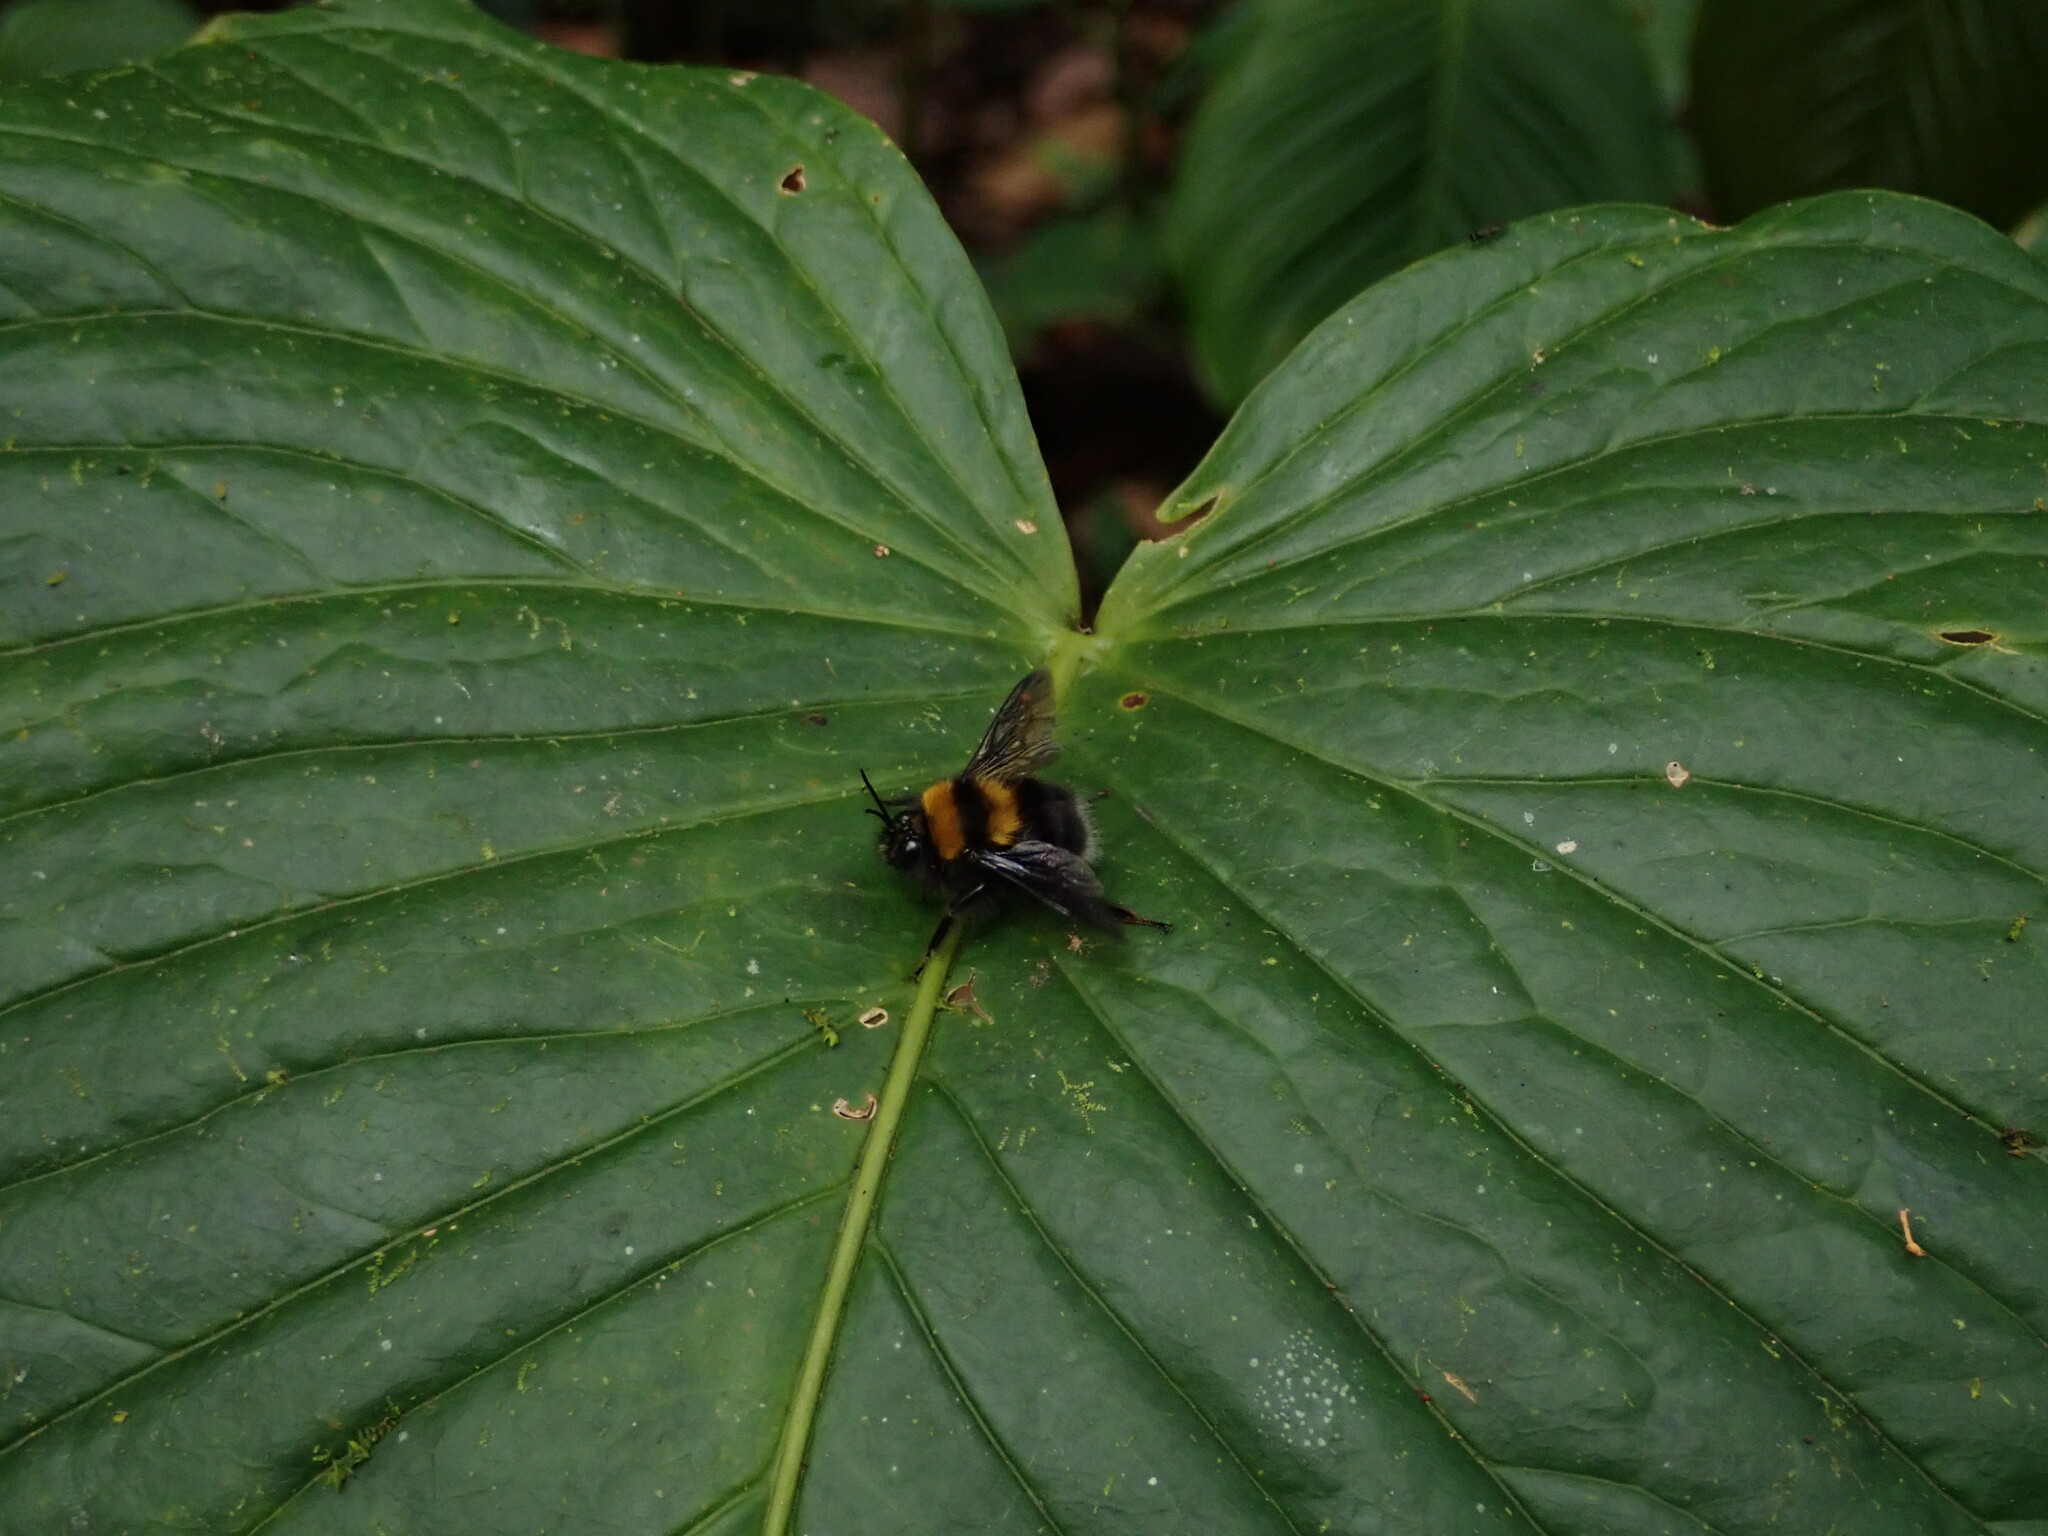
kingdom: Animalia
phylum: Arthropoda
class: Insecta
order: Hymenoptera
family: Apidae
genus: Bombus
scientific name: Bombus hortulanus
